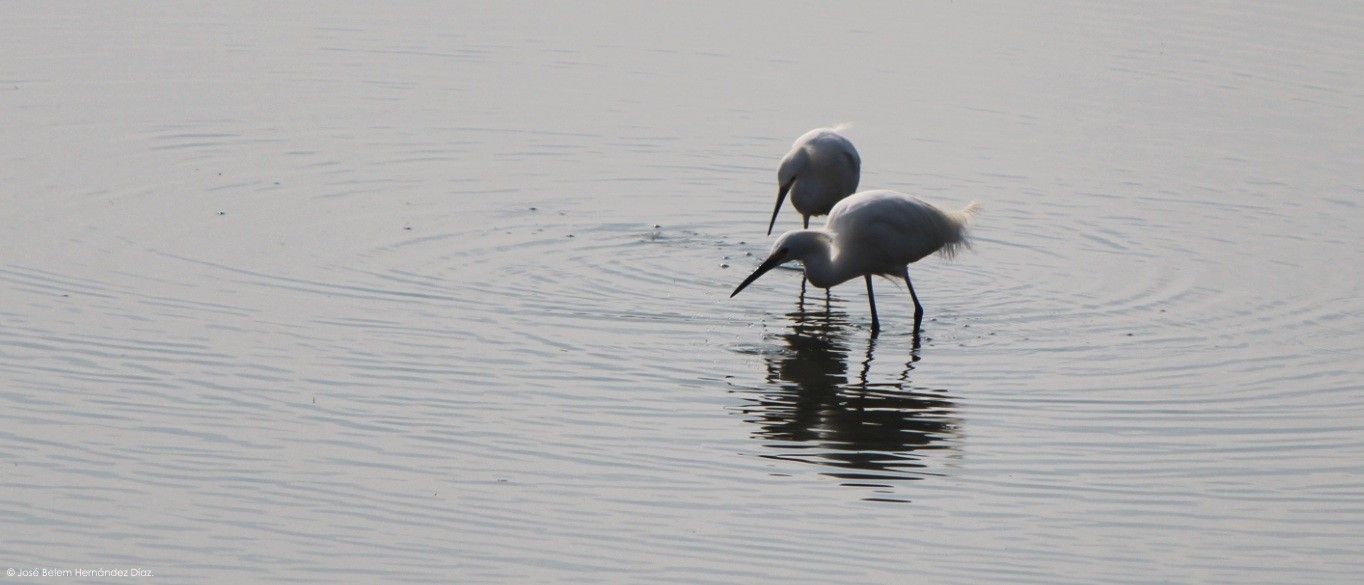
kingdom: Animalia
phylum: Chordata
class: Aves
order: Pelecaniformes
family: Ardeidae
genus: Egretta
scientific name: Egretta thula
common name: Snowy egret
